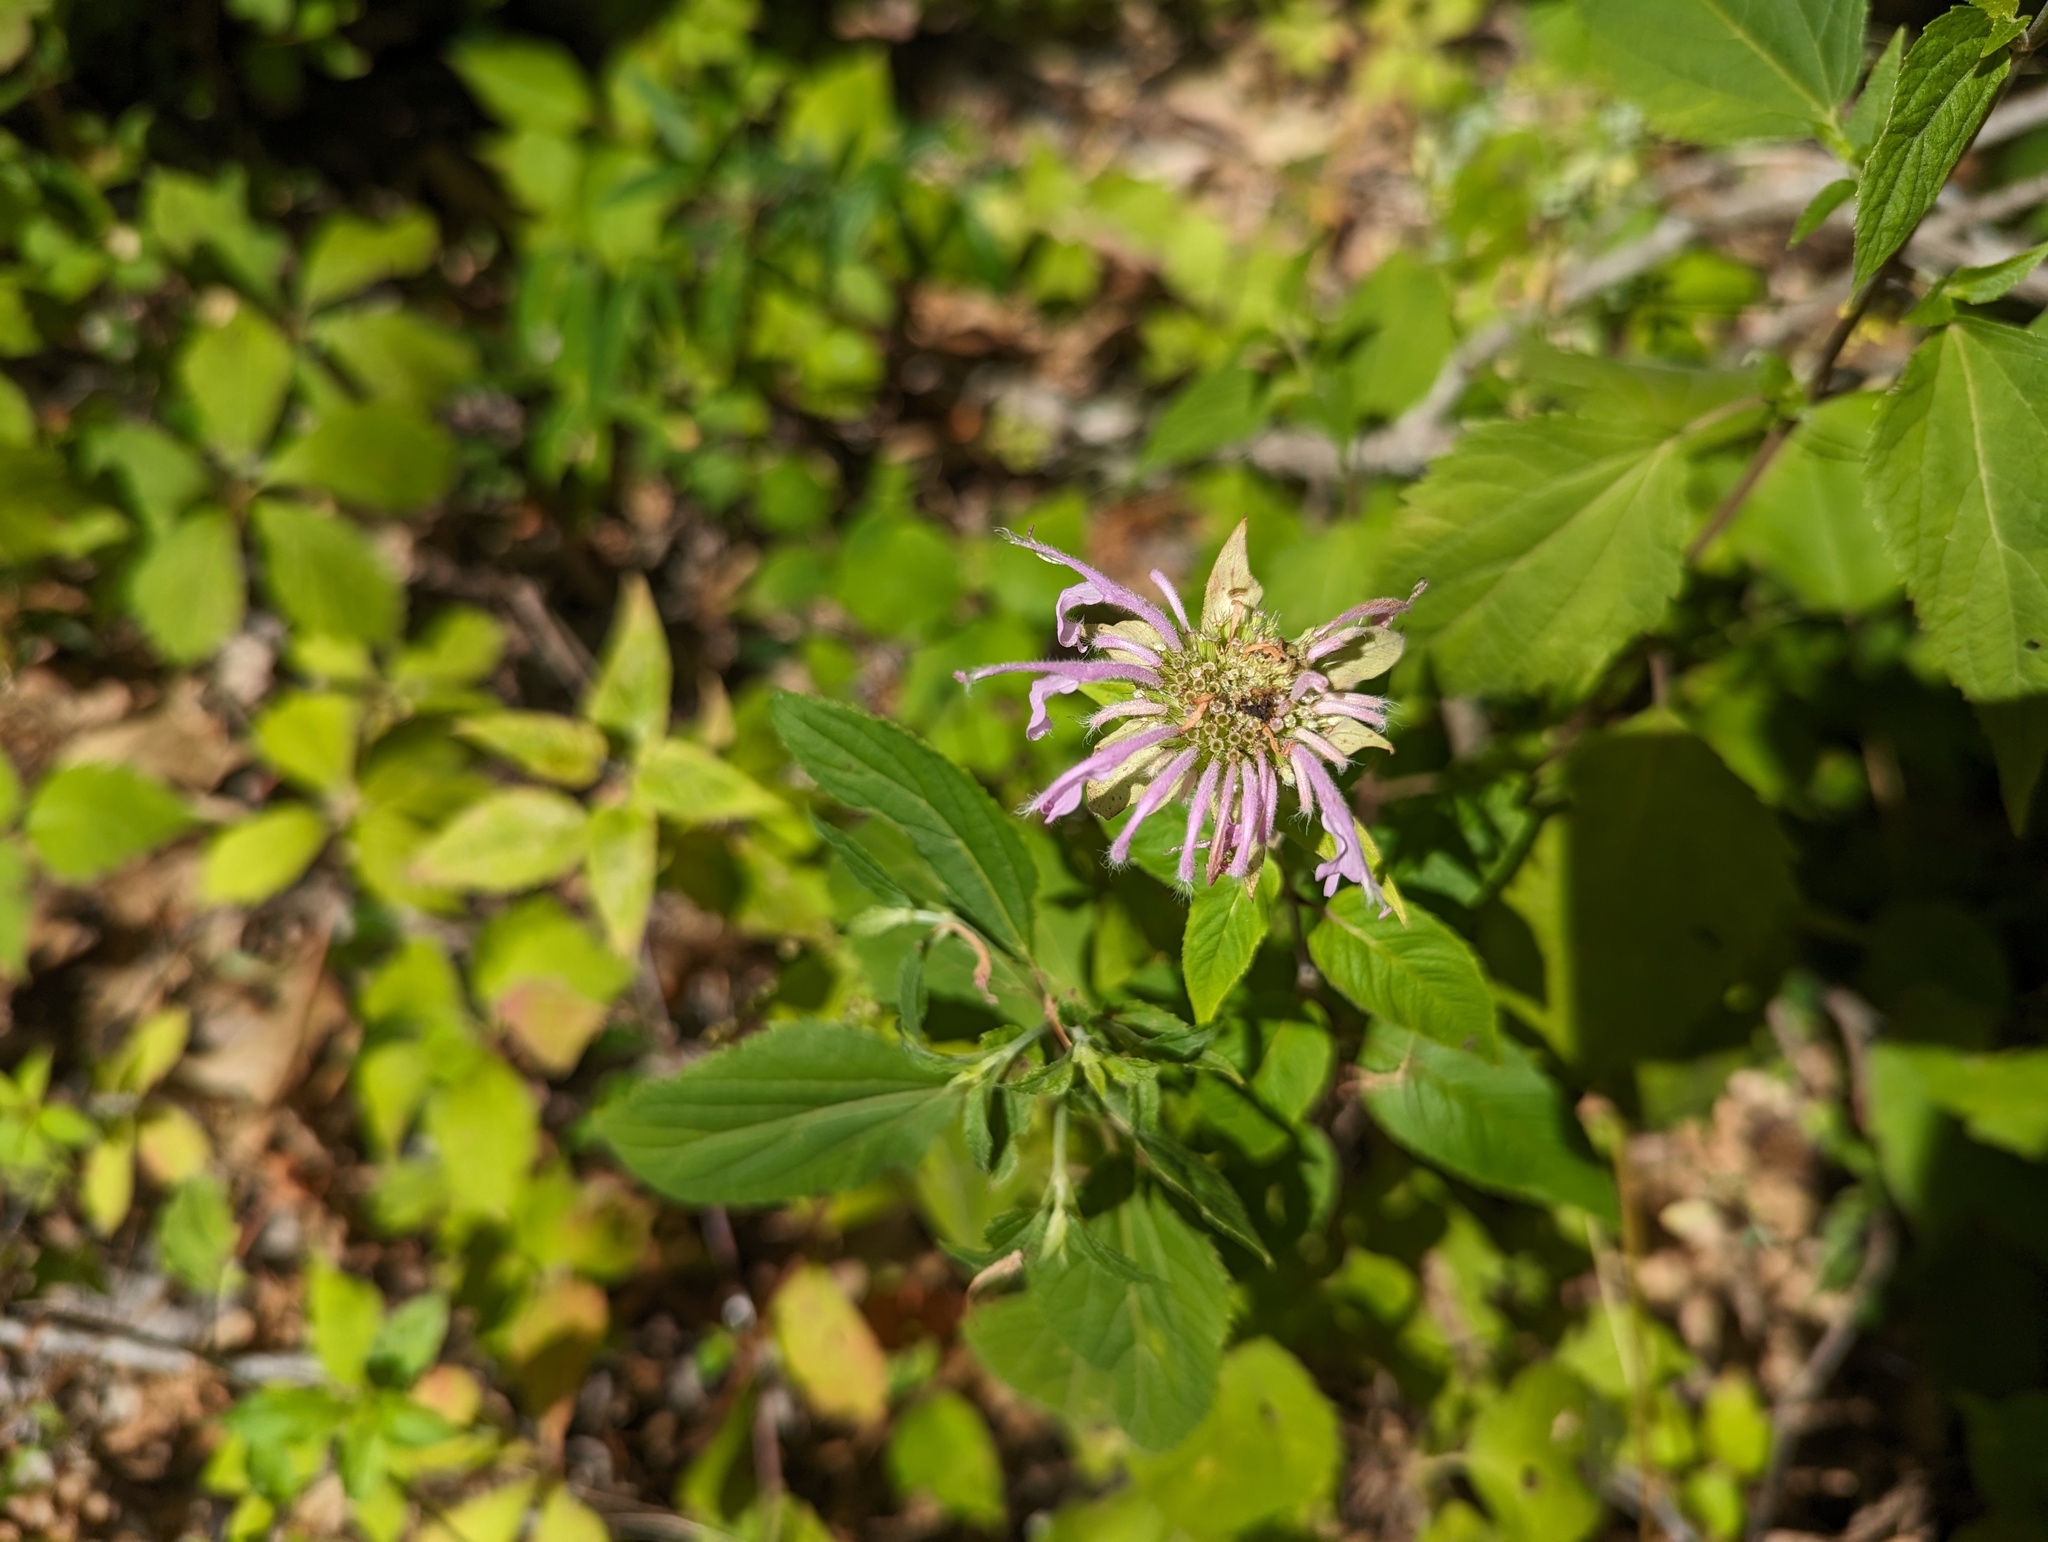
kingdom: Plantae
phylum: Tracheophyta
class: Magnoliopsida
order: Lamiales
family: Lamiaceae
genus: Monarda
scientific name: Monarda fistulosa
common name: Purple beebalm
